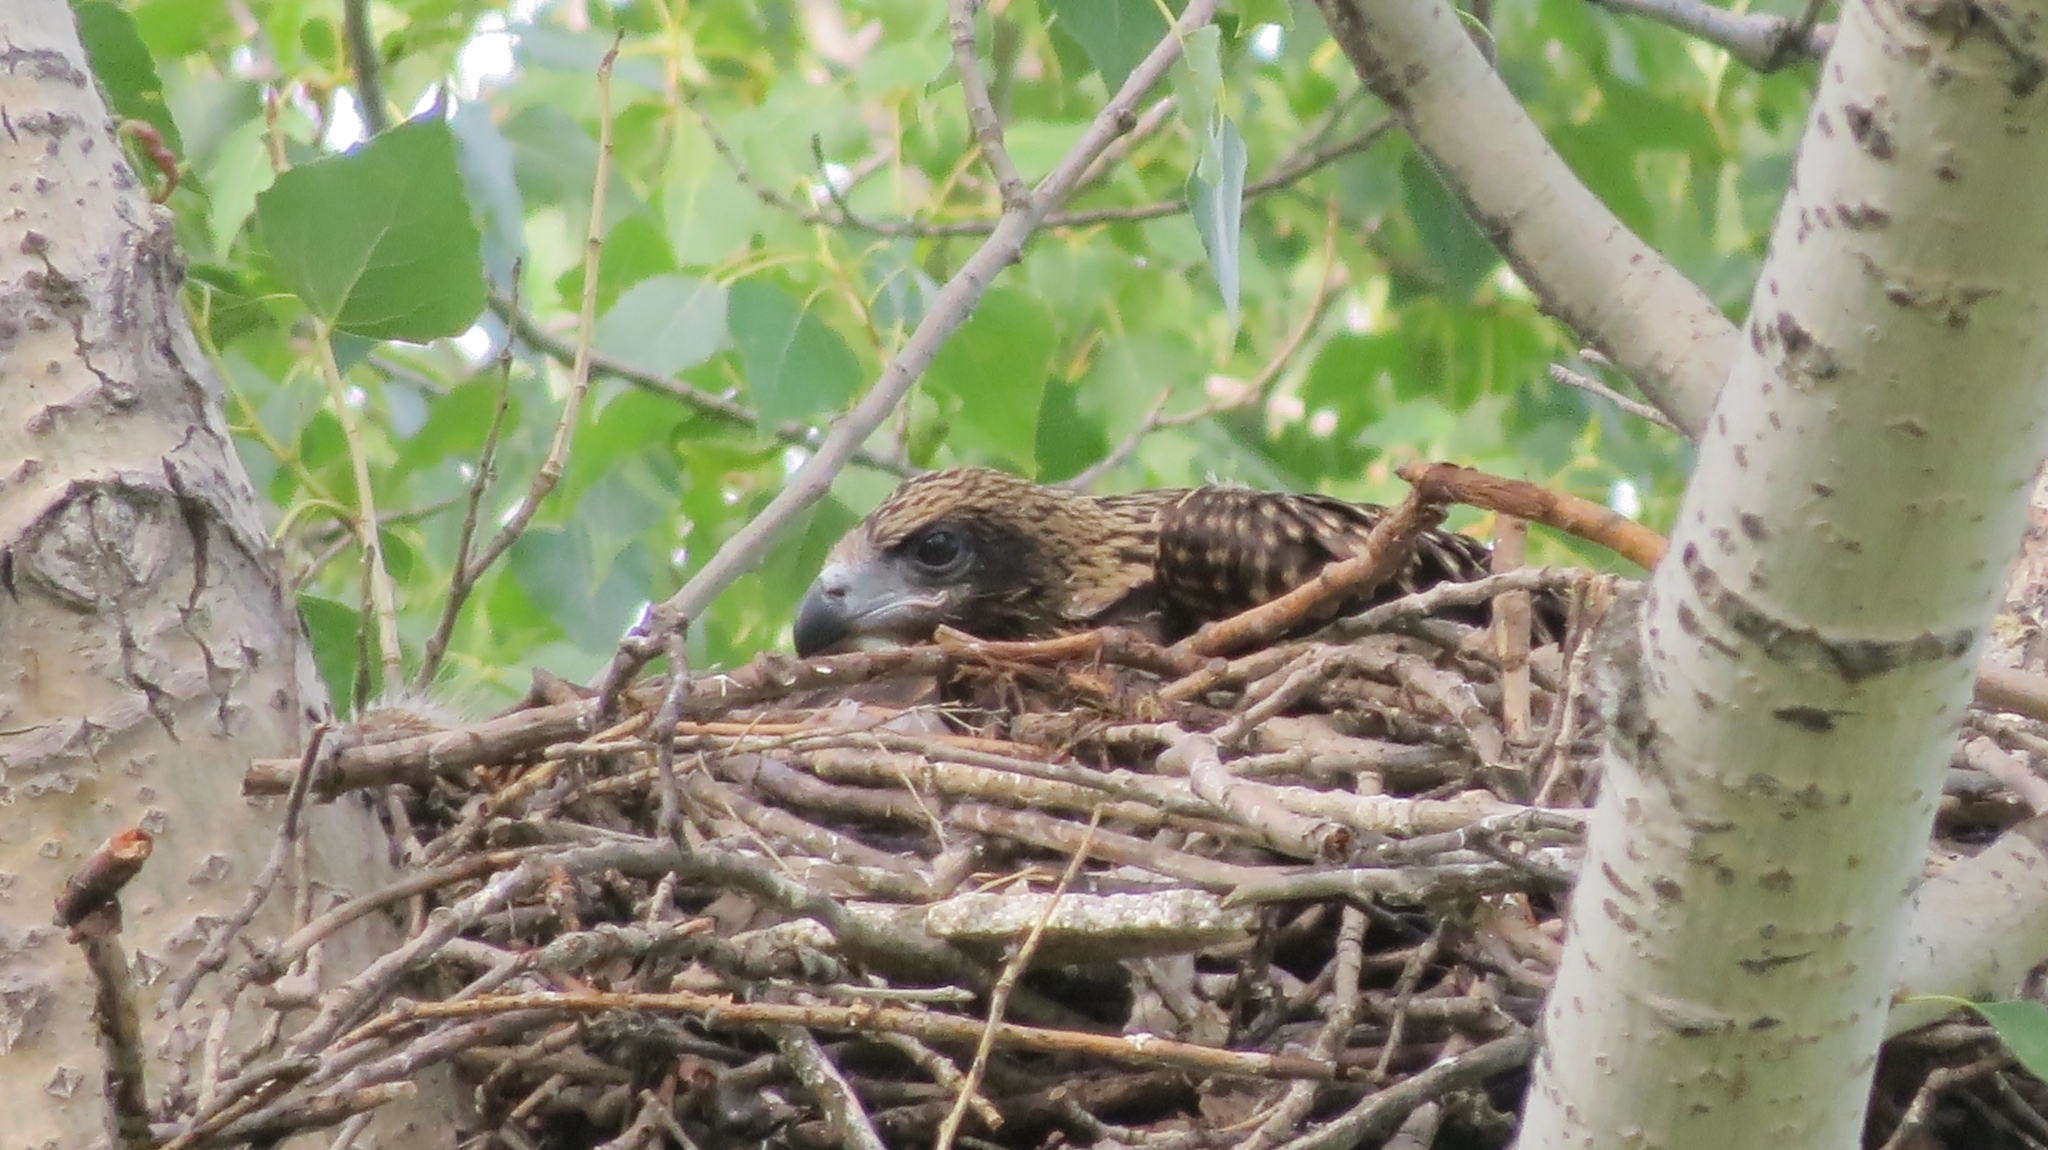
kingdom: Animalia
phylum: Chordata
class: Aves
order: Accipitriformes
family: Accipitridae
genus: Milvus
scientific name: Milvus migrans
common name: Black kite
